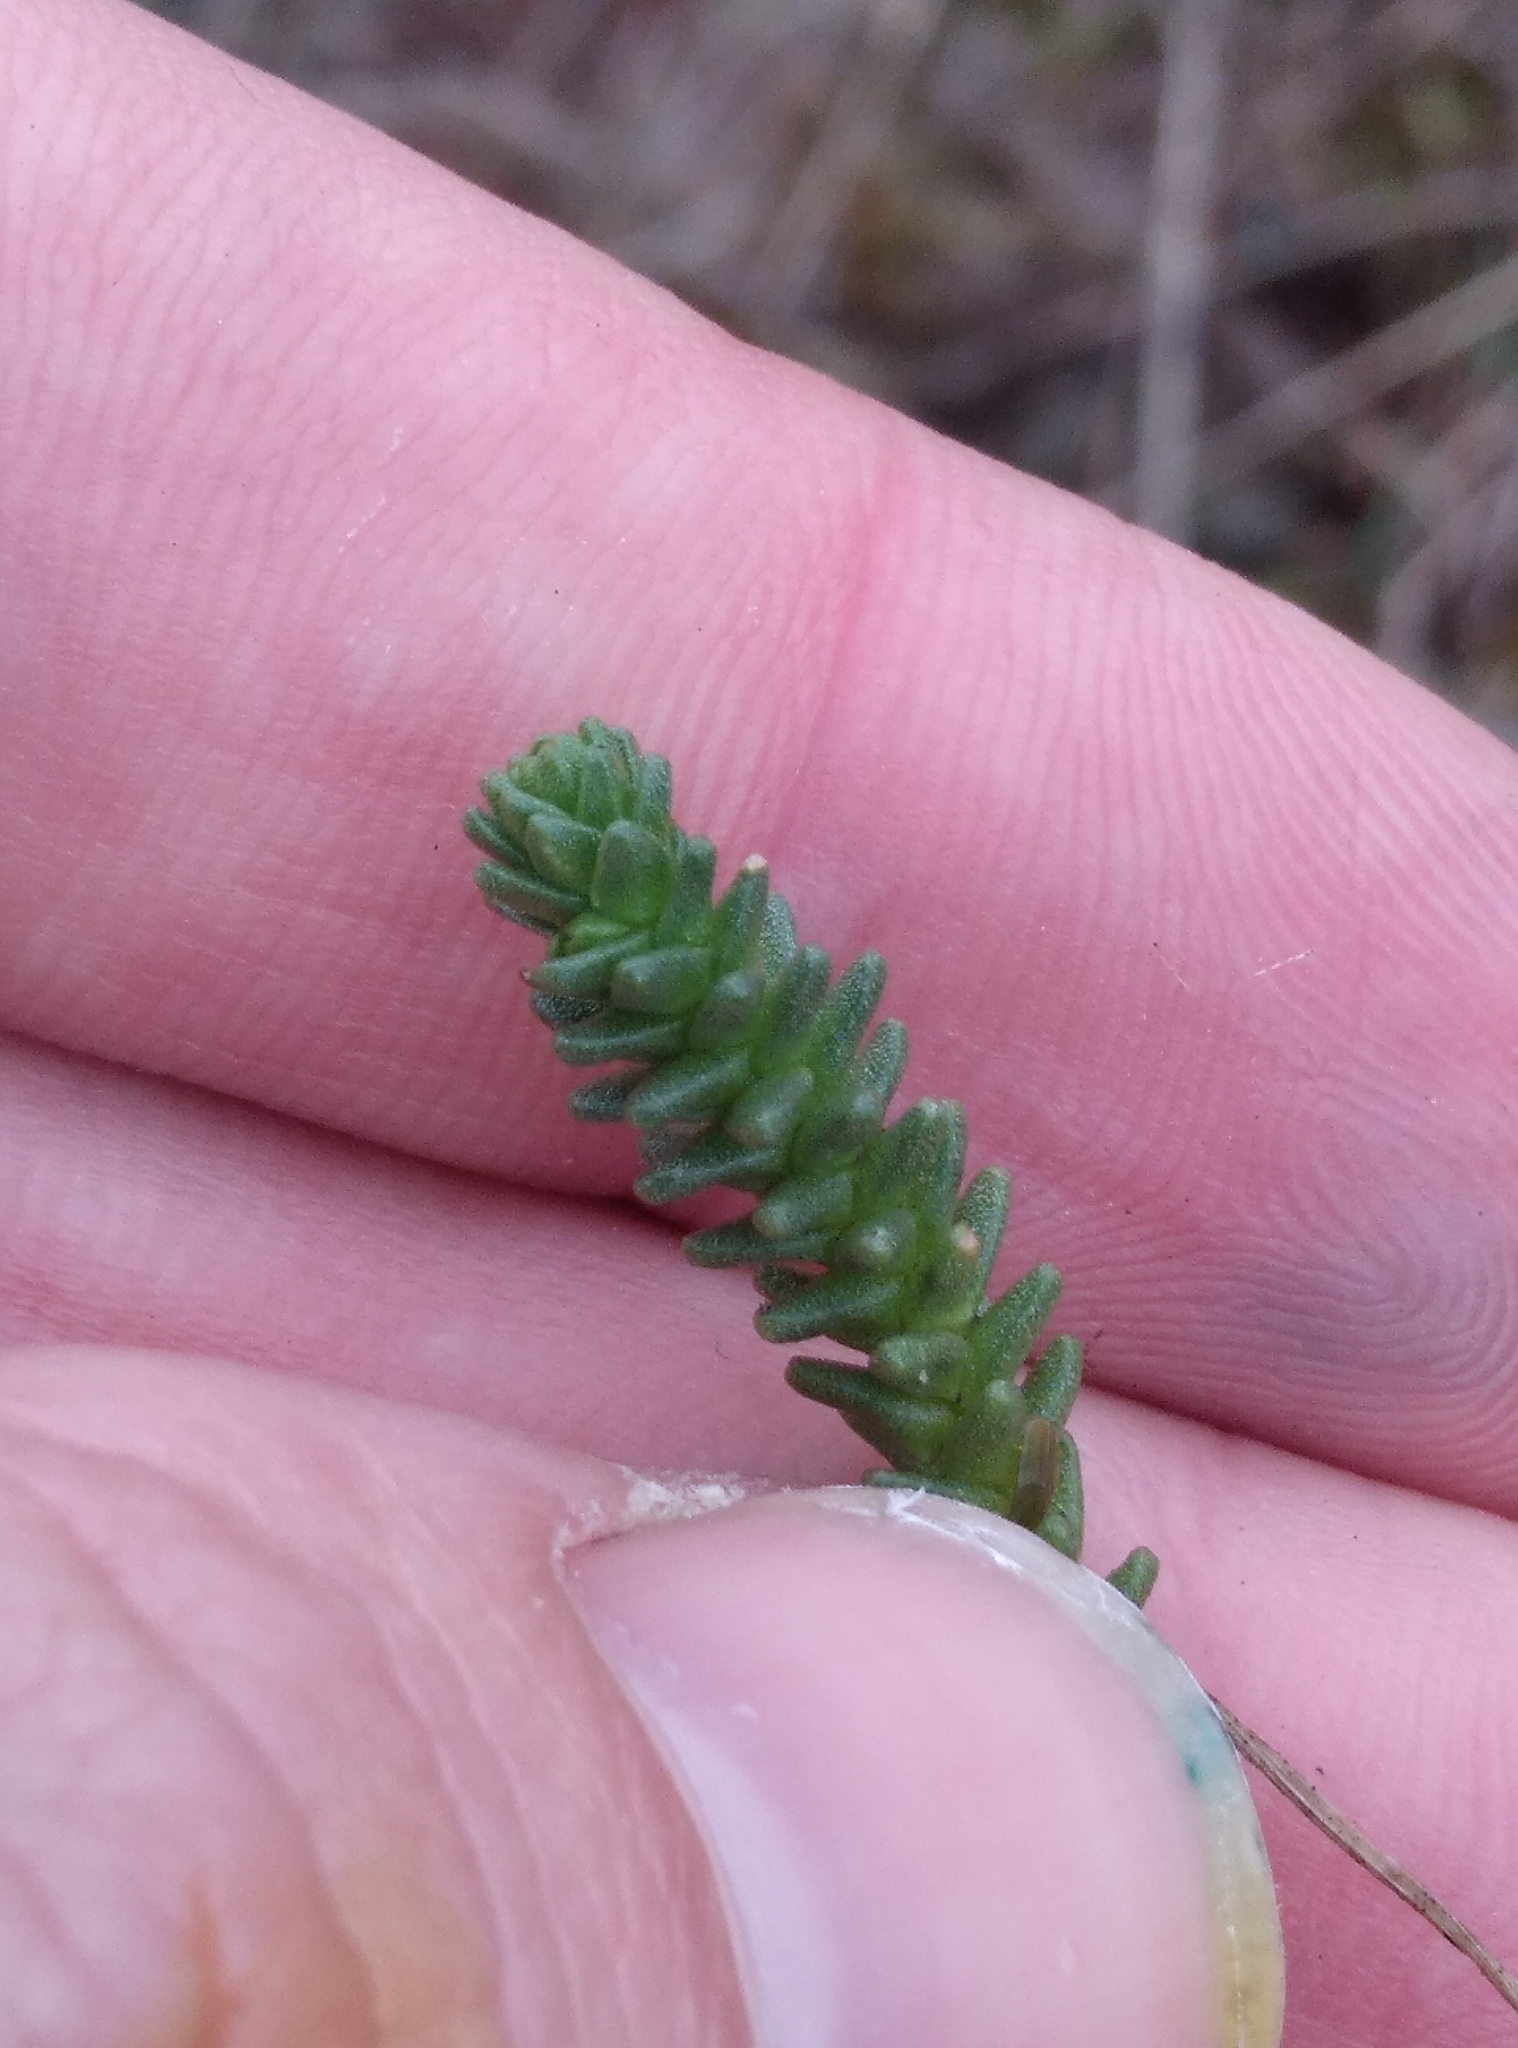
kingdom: Plantae
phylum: Tracheophyta
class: Magnoliopsida
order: Saxifragales
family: Crassulaceae
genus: Sedum
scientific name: Sedum acre
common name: Biting stonecrop
